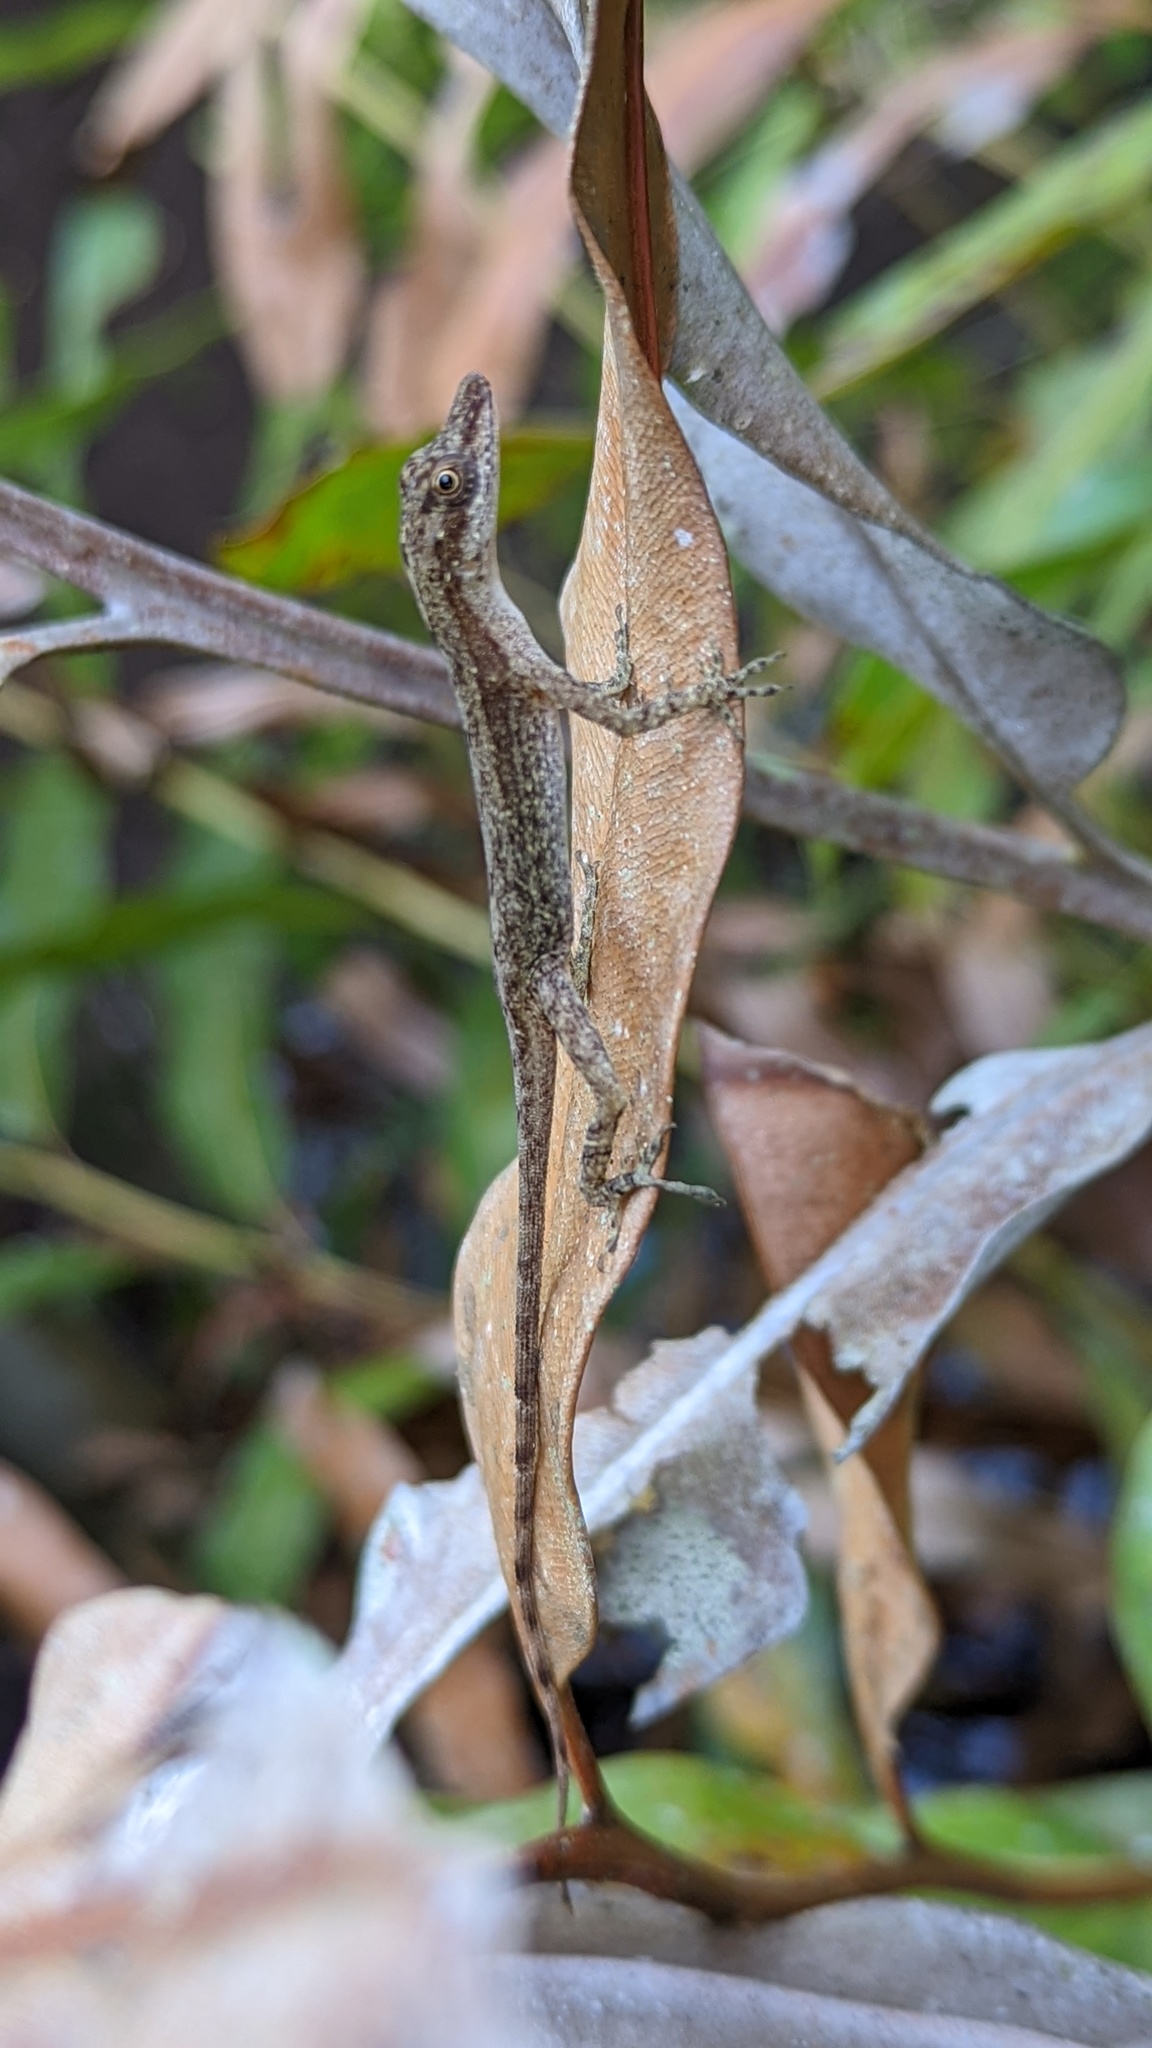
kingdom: Animalia
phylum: Chordata
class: Squamata
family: Dactyloidae
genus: Anolis
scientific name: Anolis limifrons
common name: Border anole
